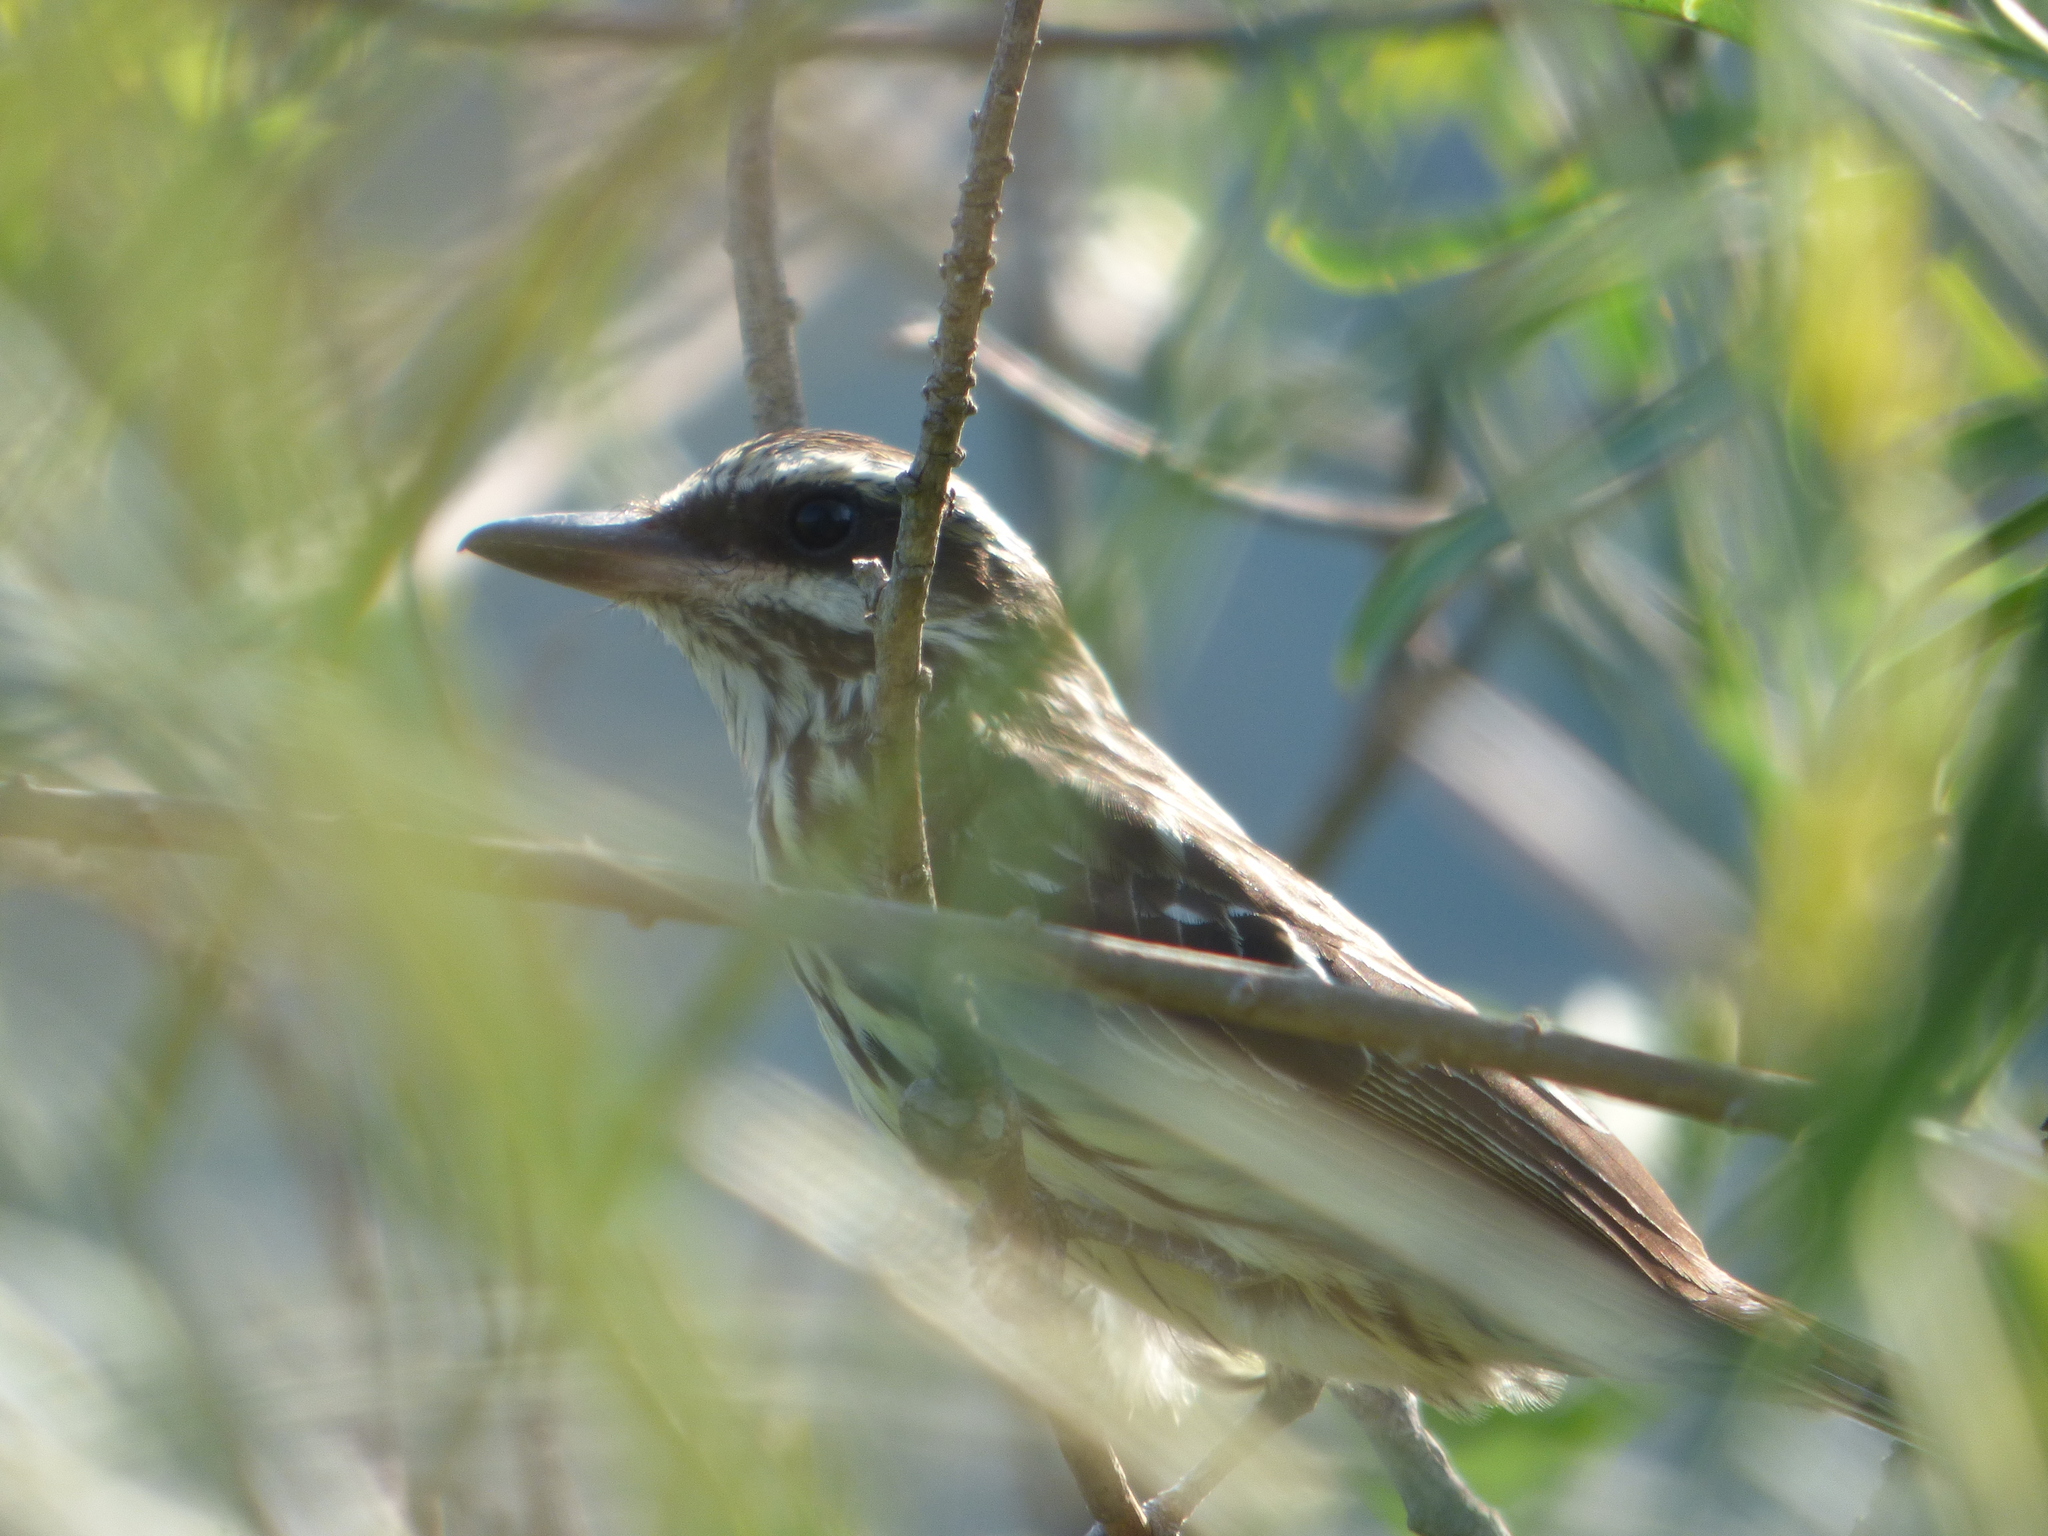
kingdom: Animalia
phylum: Chordata
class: Aves
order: Passeriformes
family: Tyrannidae
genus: Myiodynastes
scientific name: Myiodynastes maculatus
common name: Streaked flycatcher
